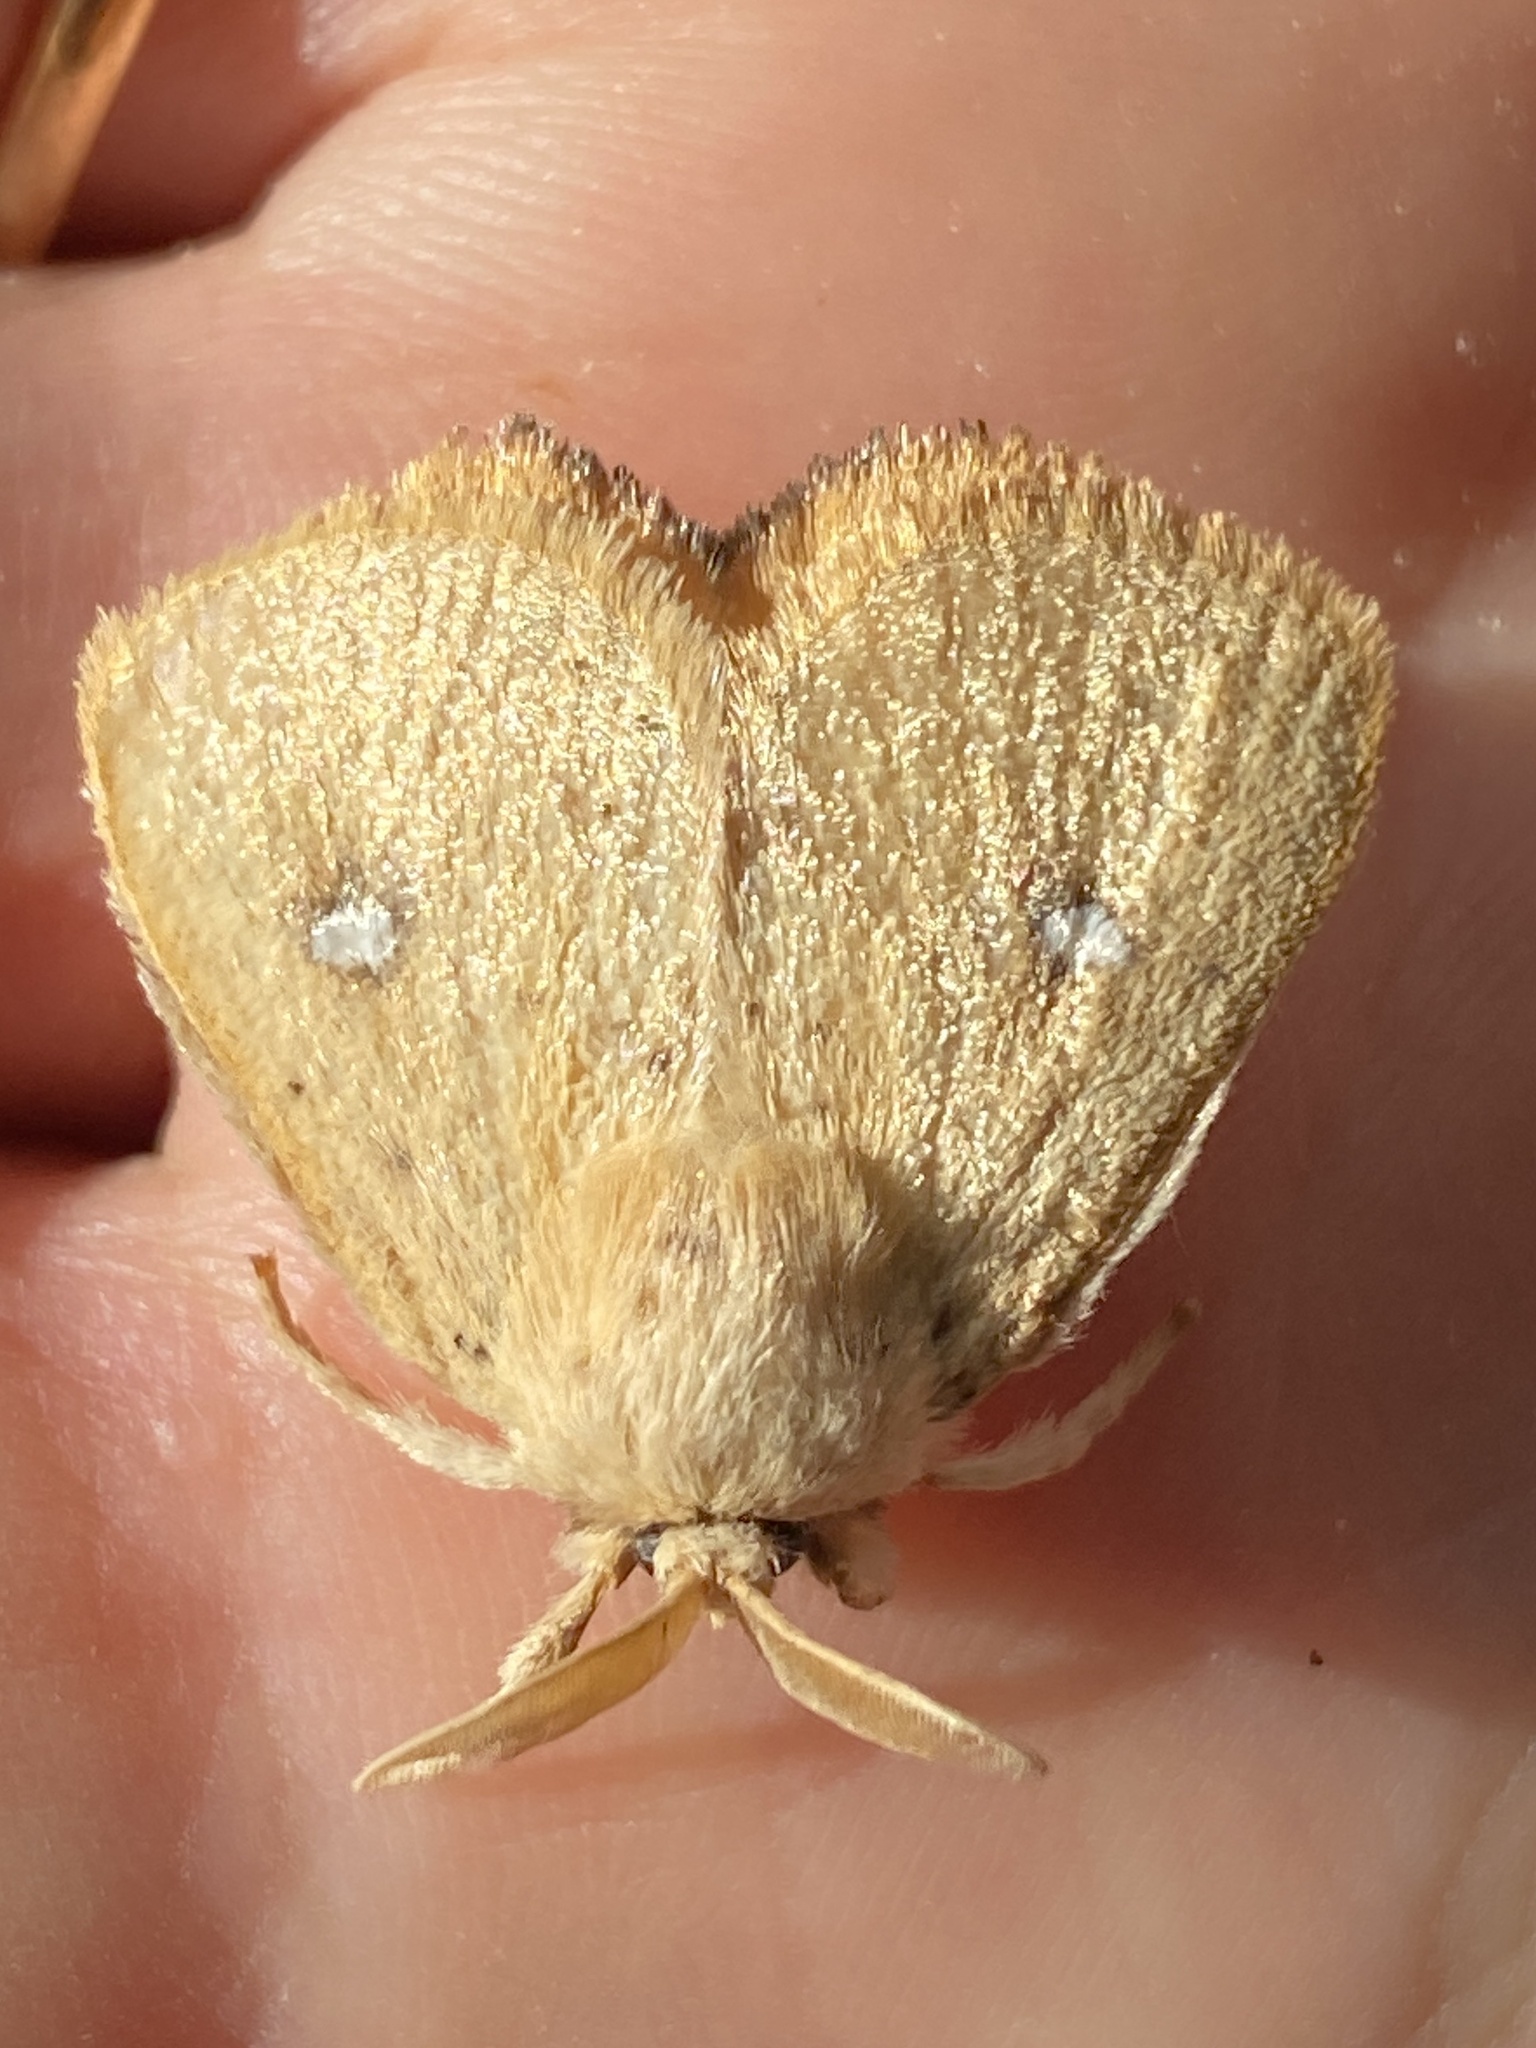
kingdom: Animalia
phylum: Arthropoda
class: Insecta
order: Lepidoptera
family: Limacodidae
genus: Hamartia
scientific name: Hamartia clarissa
